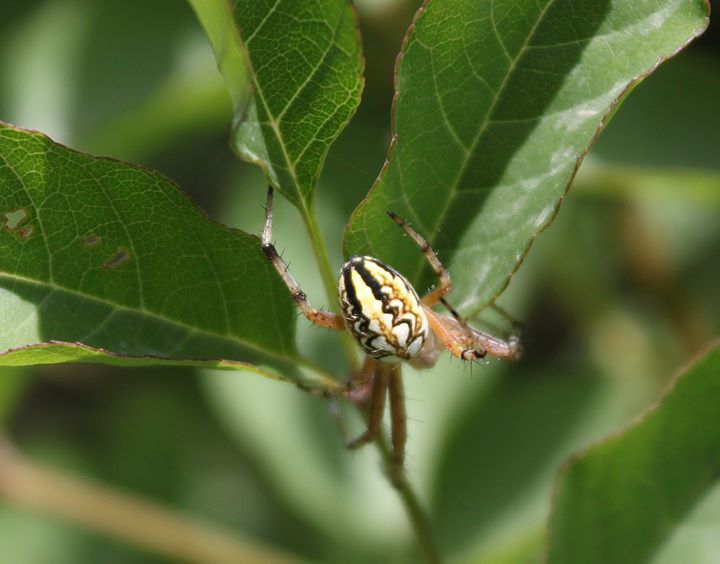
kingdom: Animalia
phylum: Arthropoda
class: Arachnida
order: Araneae
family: Araneidae
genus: Neoscona
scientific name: Neoscona adianta
